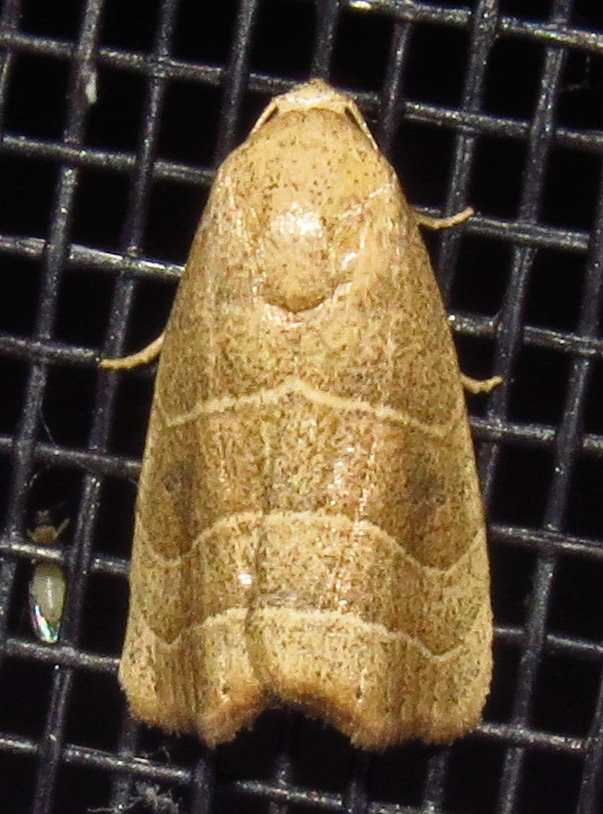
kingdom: Animalia
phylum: Arthropoda
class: Insecta
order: Lepidoptera
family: Noctuidae
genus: Bagisara
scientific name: Bagisara repanda
